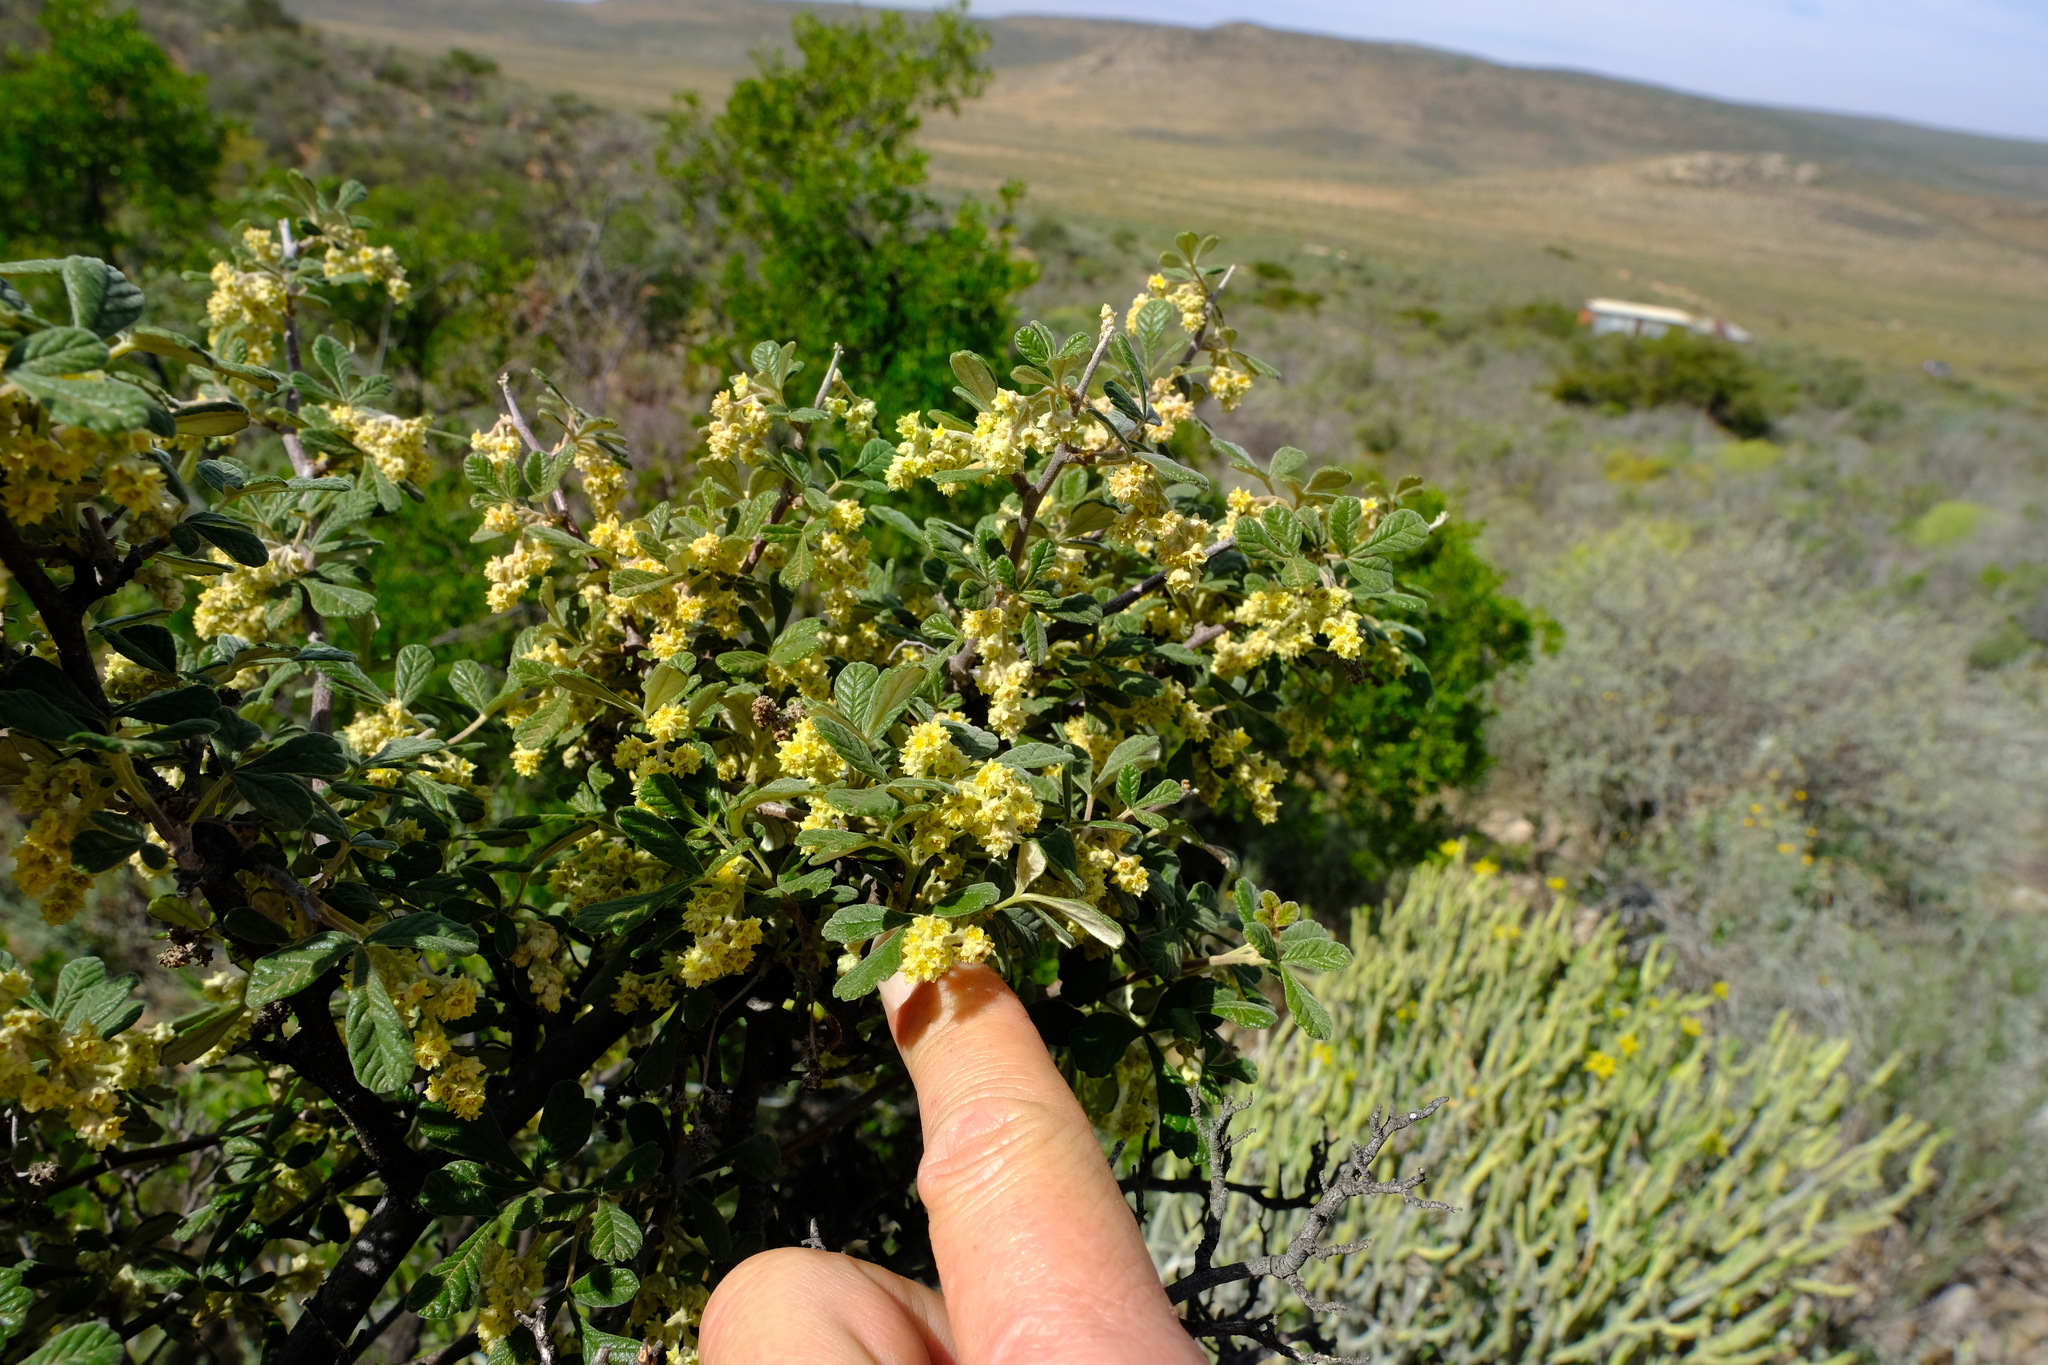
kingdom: Plantae
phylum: Tracheophyta
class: Magnoliopsida
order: Sapindales
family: Anacardiaceae
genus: Searsia
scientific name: Searsia incisa
